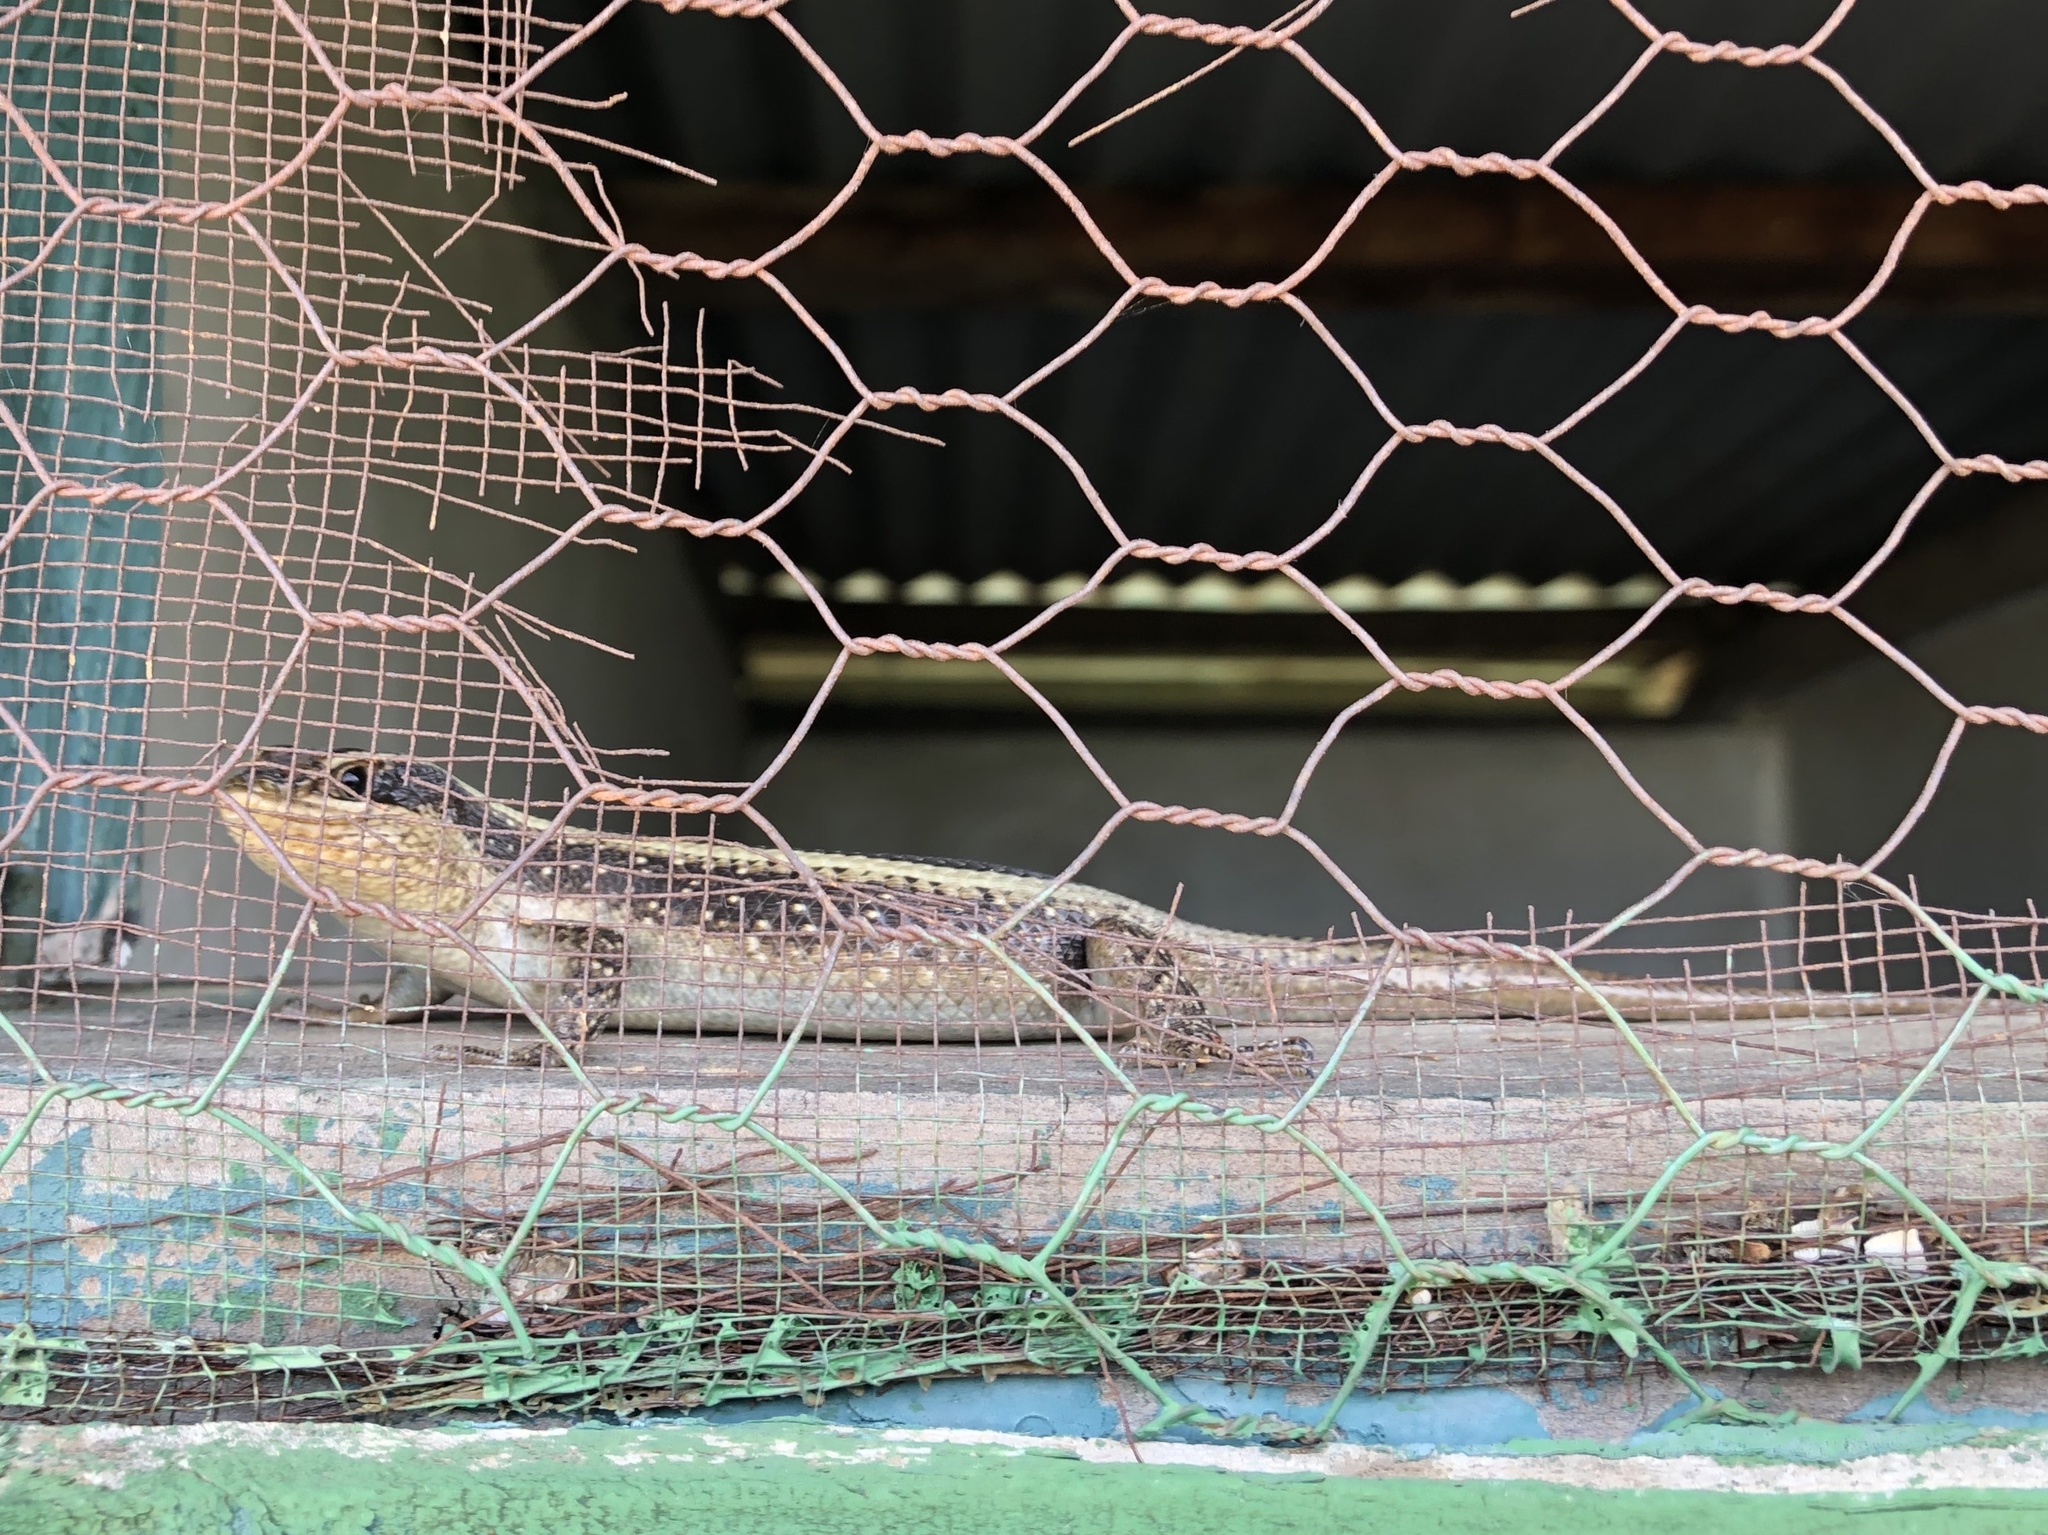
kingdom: Animalia
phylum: Chordata
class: Squamata
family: Scincidae
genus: Trachylepis
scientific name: Trachylepis striata
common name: African striped mabuya
